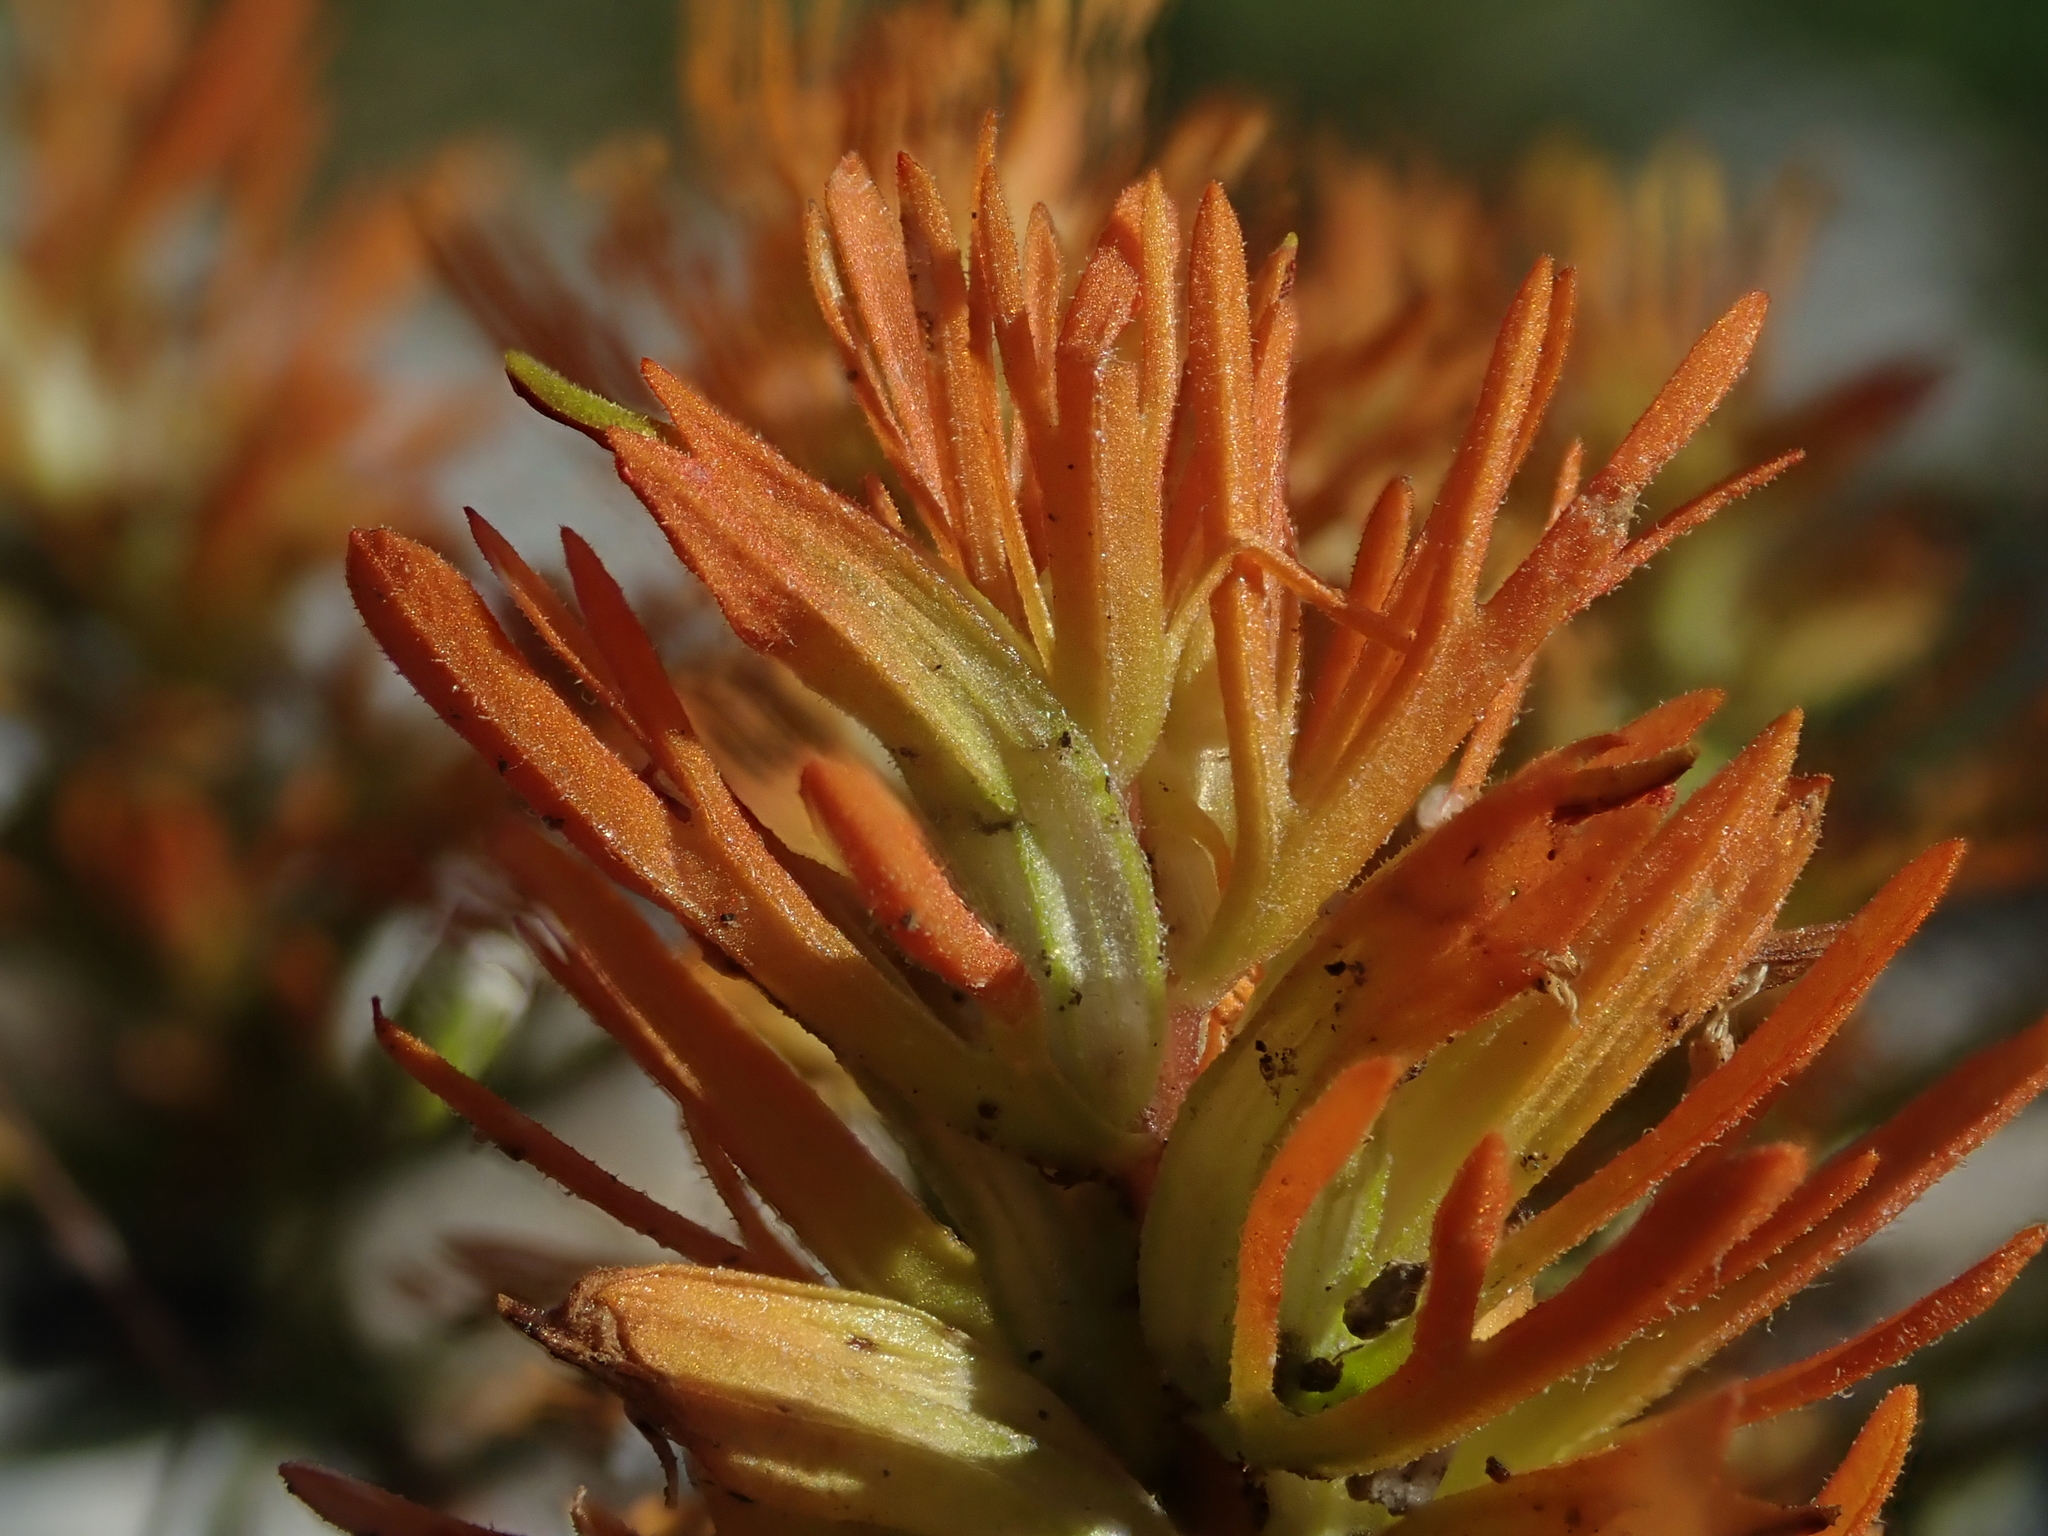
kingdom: Plantae
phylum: Tracheophyta
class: Magnoliopsida
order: Lamiales
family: Orobanchaceae
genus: Castilleja
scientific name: Castilleja covilleana
